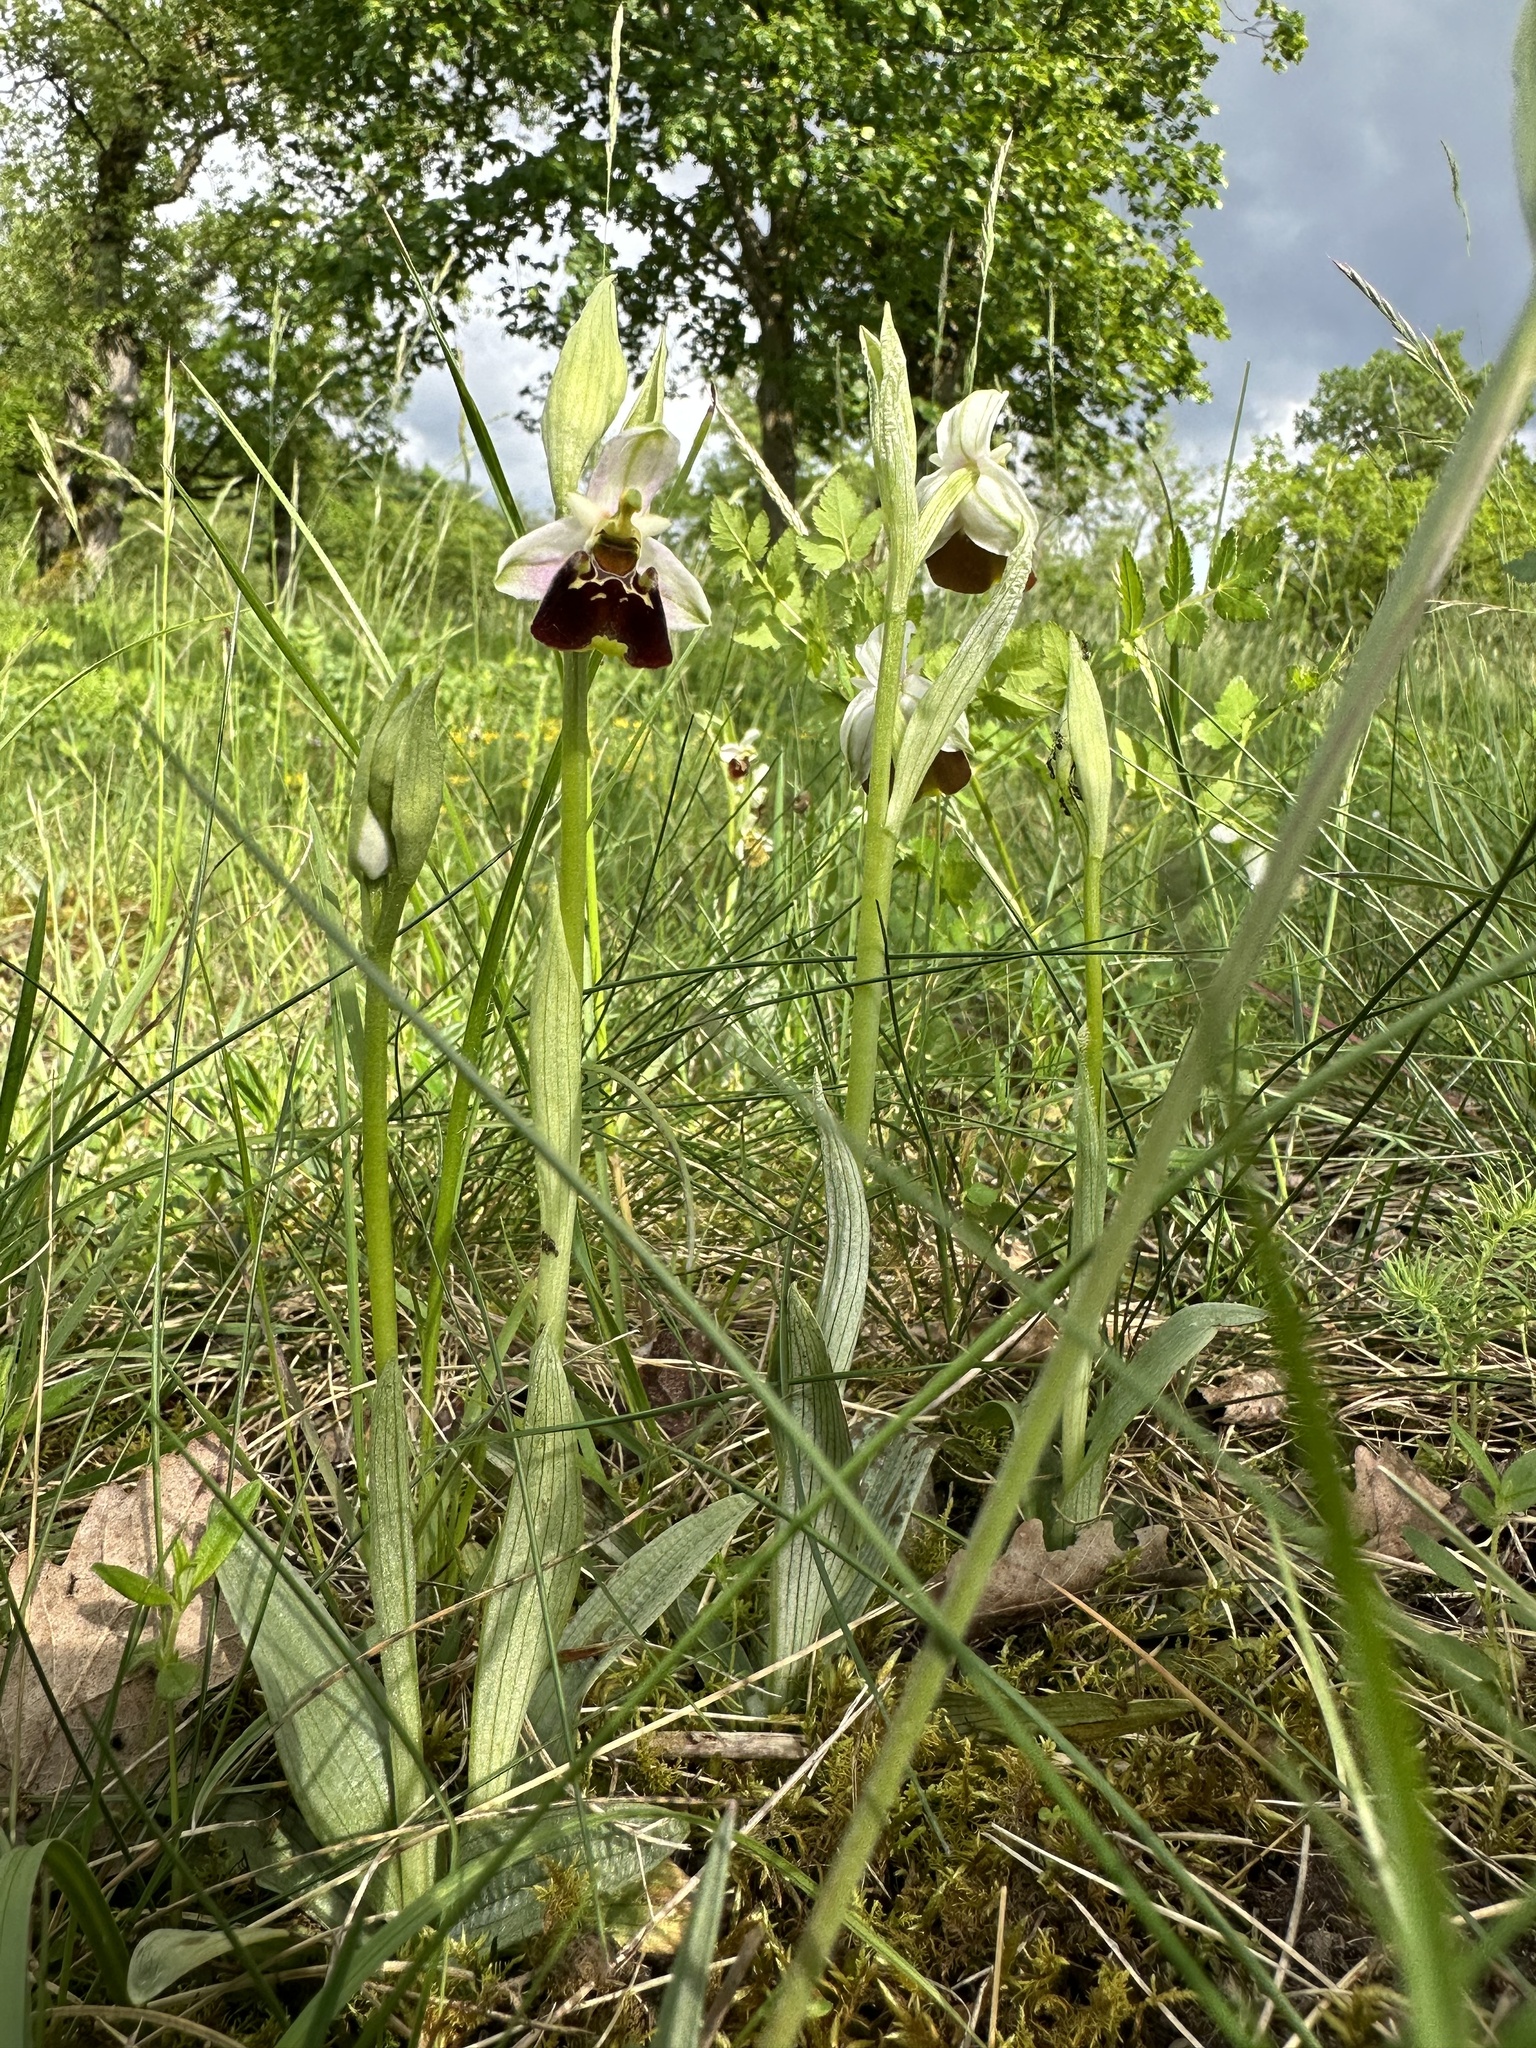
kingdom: Plantae
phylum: Tracheophyta
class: Liliopsida
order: Asparagales
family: Orchidaceae
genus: Ophrys
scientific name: Ophrys holosericea
